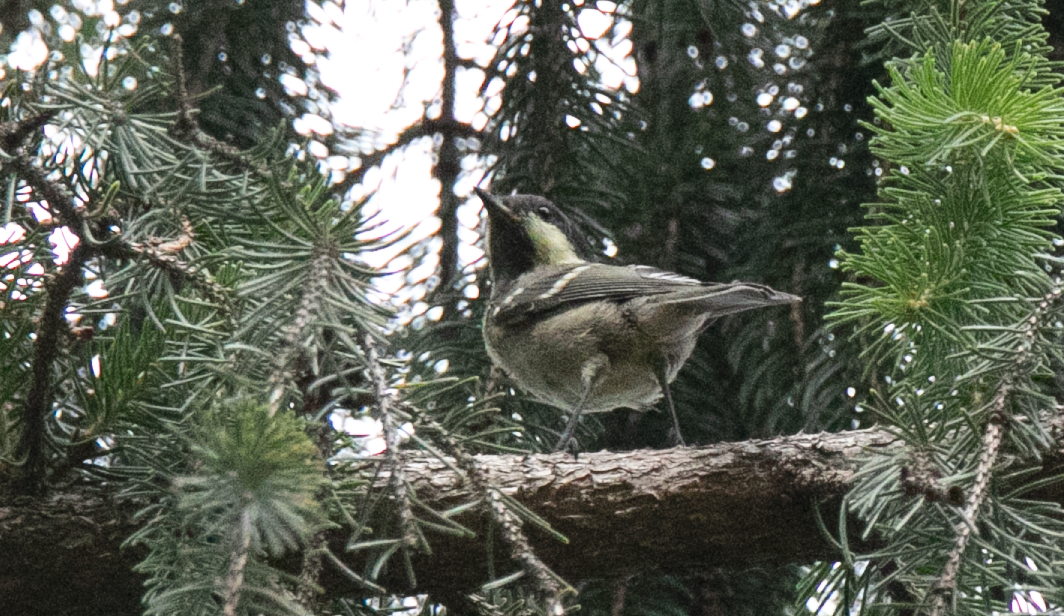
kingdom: Animalia
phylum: Chordata
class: Aves
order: Passeriformes
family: Paridae
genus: Periparus
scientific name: Periparus ater
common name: Coal tit
